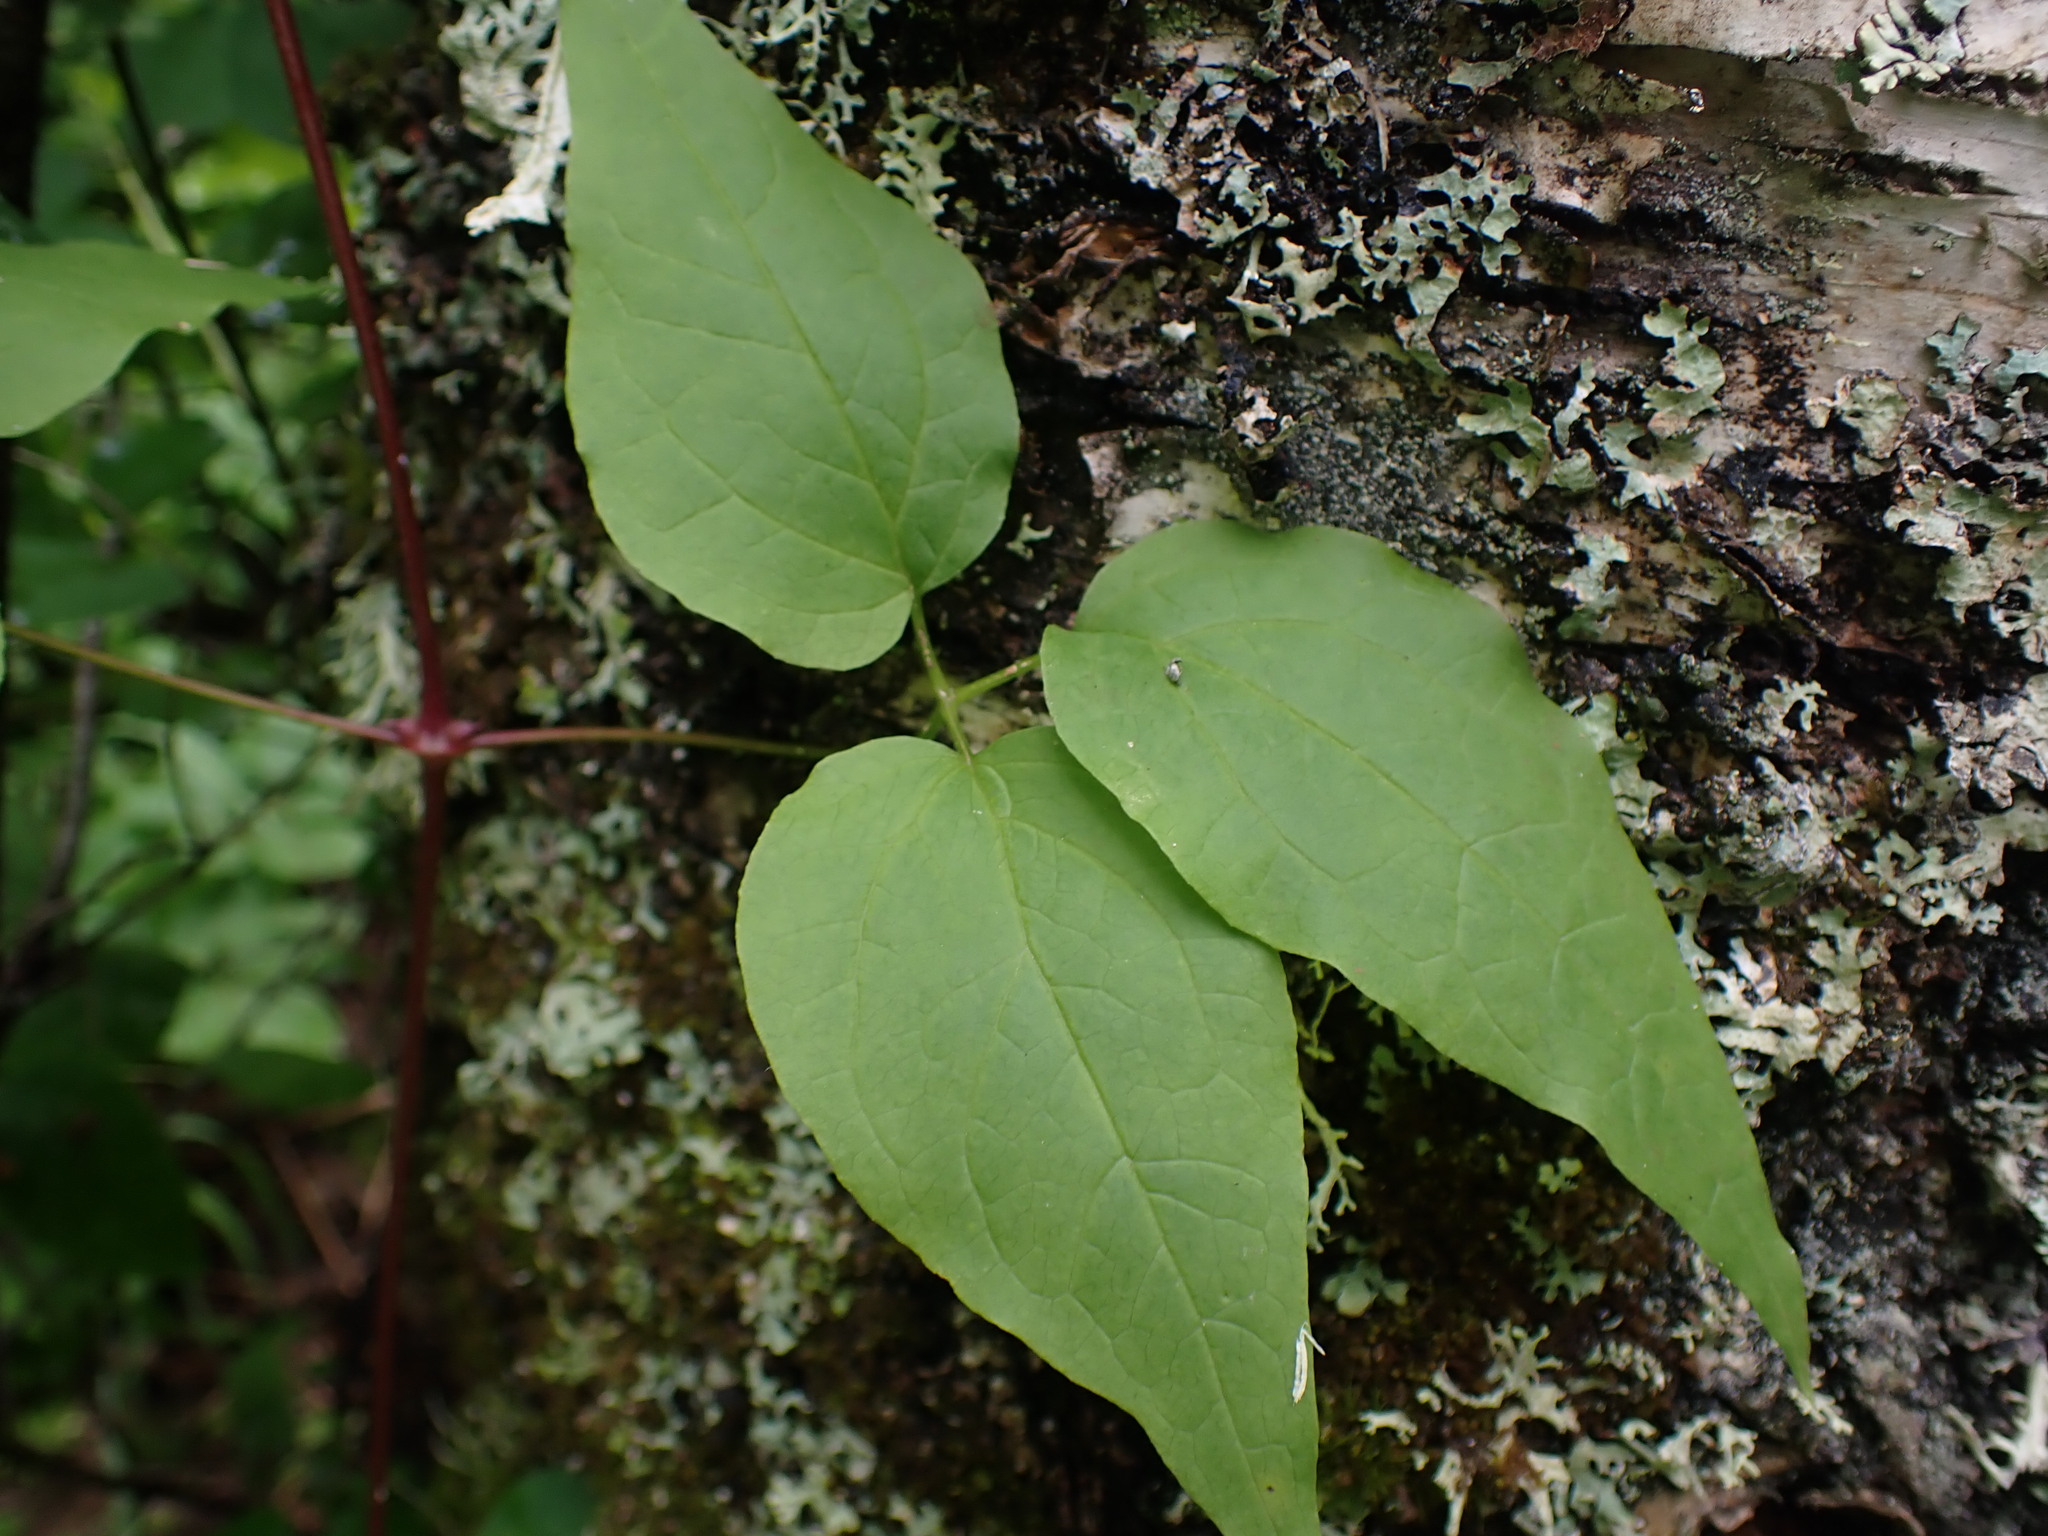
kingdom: Plantae
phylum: Tracheophyta
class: Magnoliopsida
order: Ranunculales
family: Ranunculaceae
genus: Clematis
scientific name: Clematis occidentalis
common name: Purple clematis
